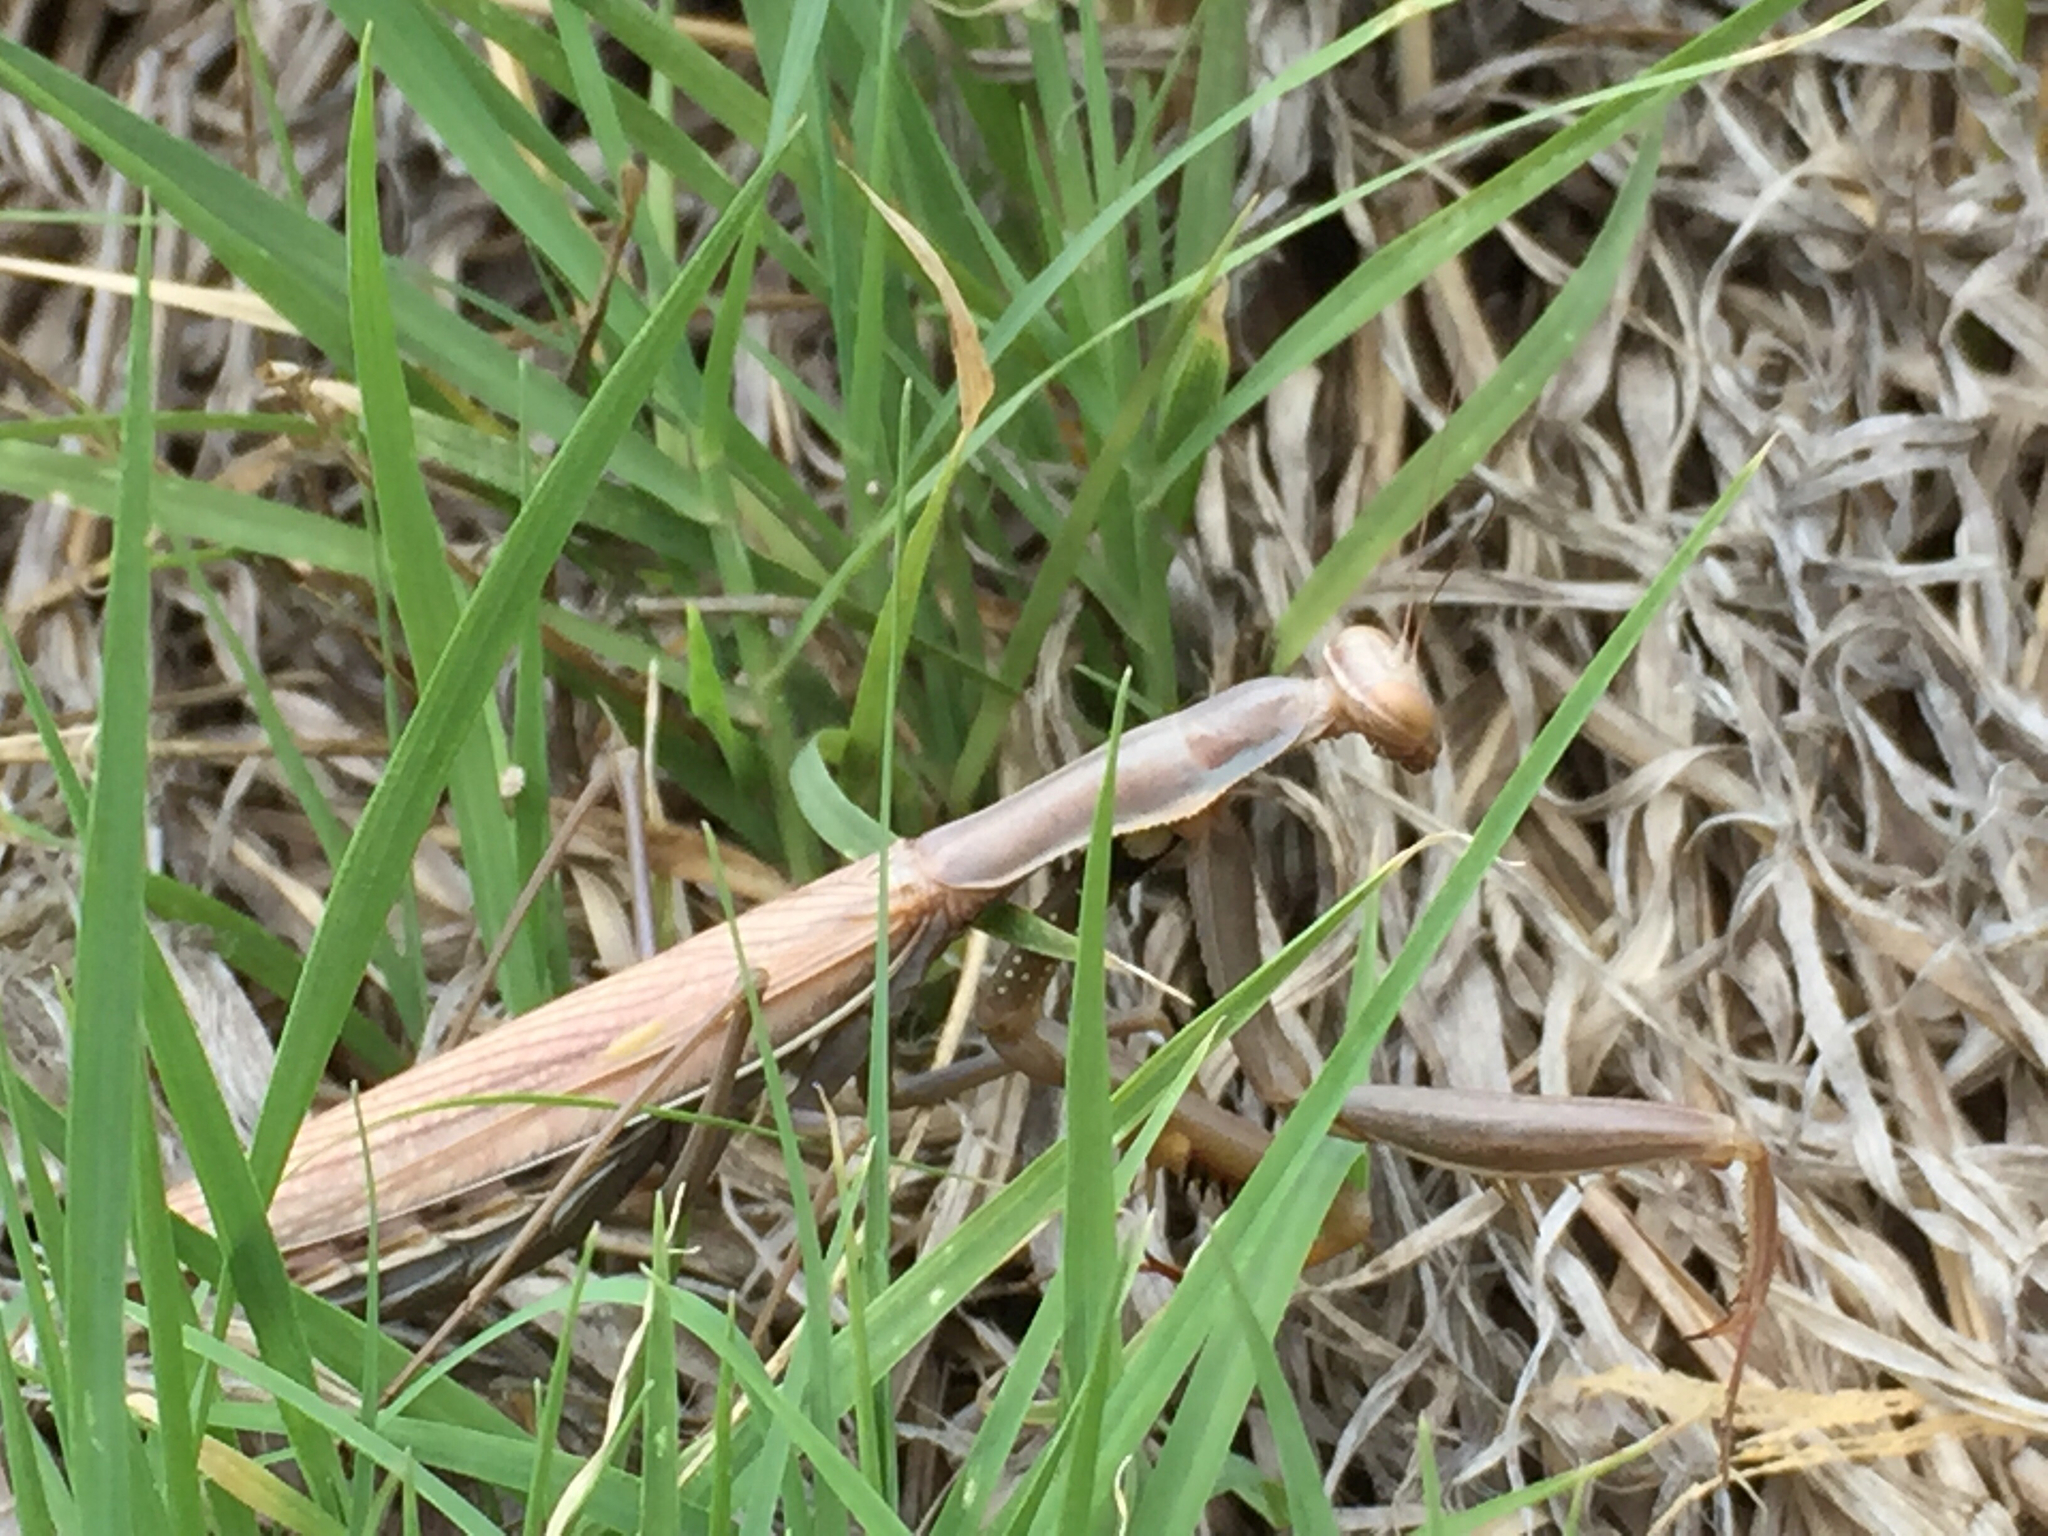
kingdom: Animalia
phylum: Arthropoda
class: Insecta
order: Mantodea
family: Mantidae
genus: Mantis
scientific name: Mantis religiosa
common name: Praying mantis
